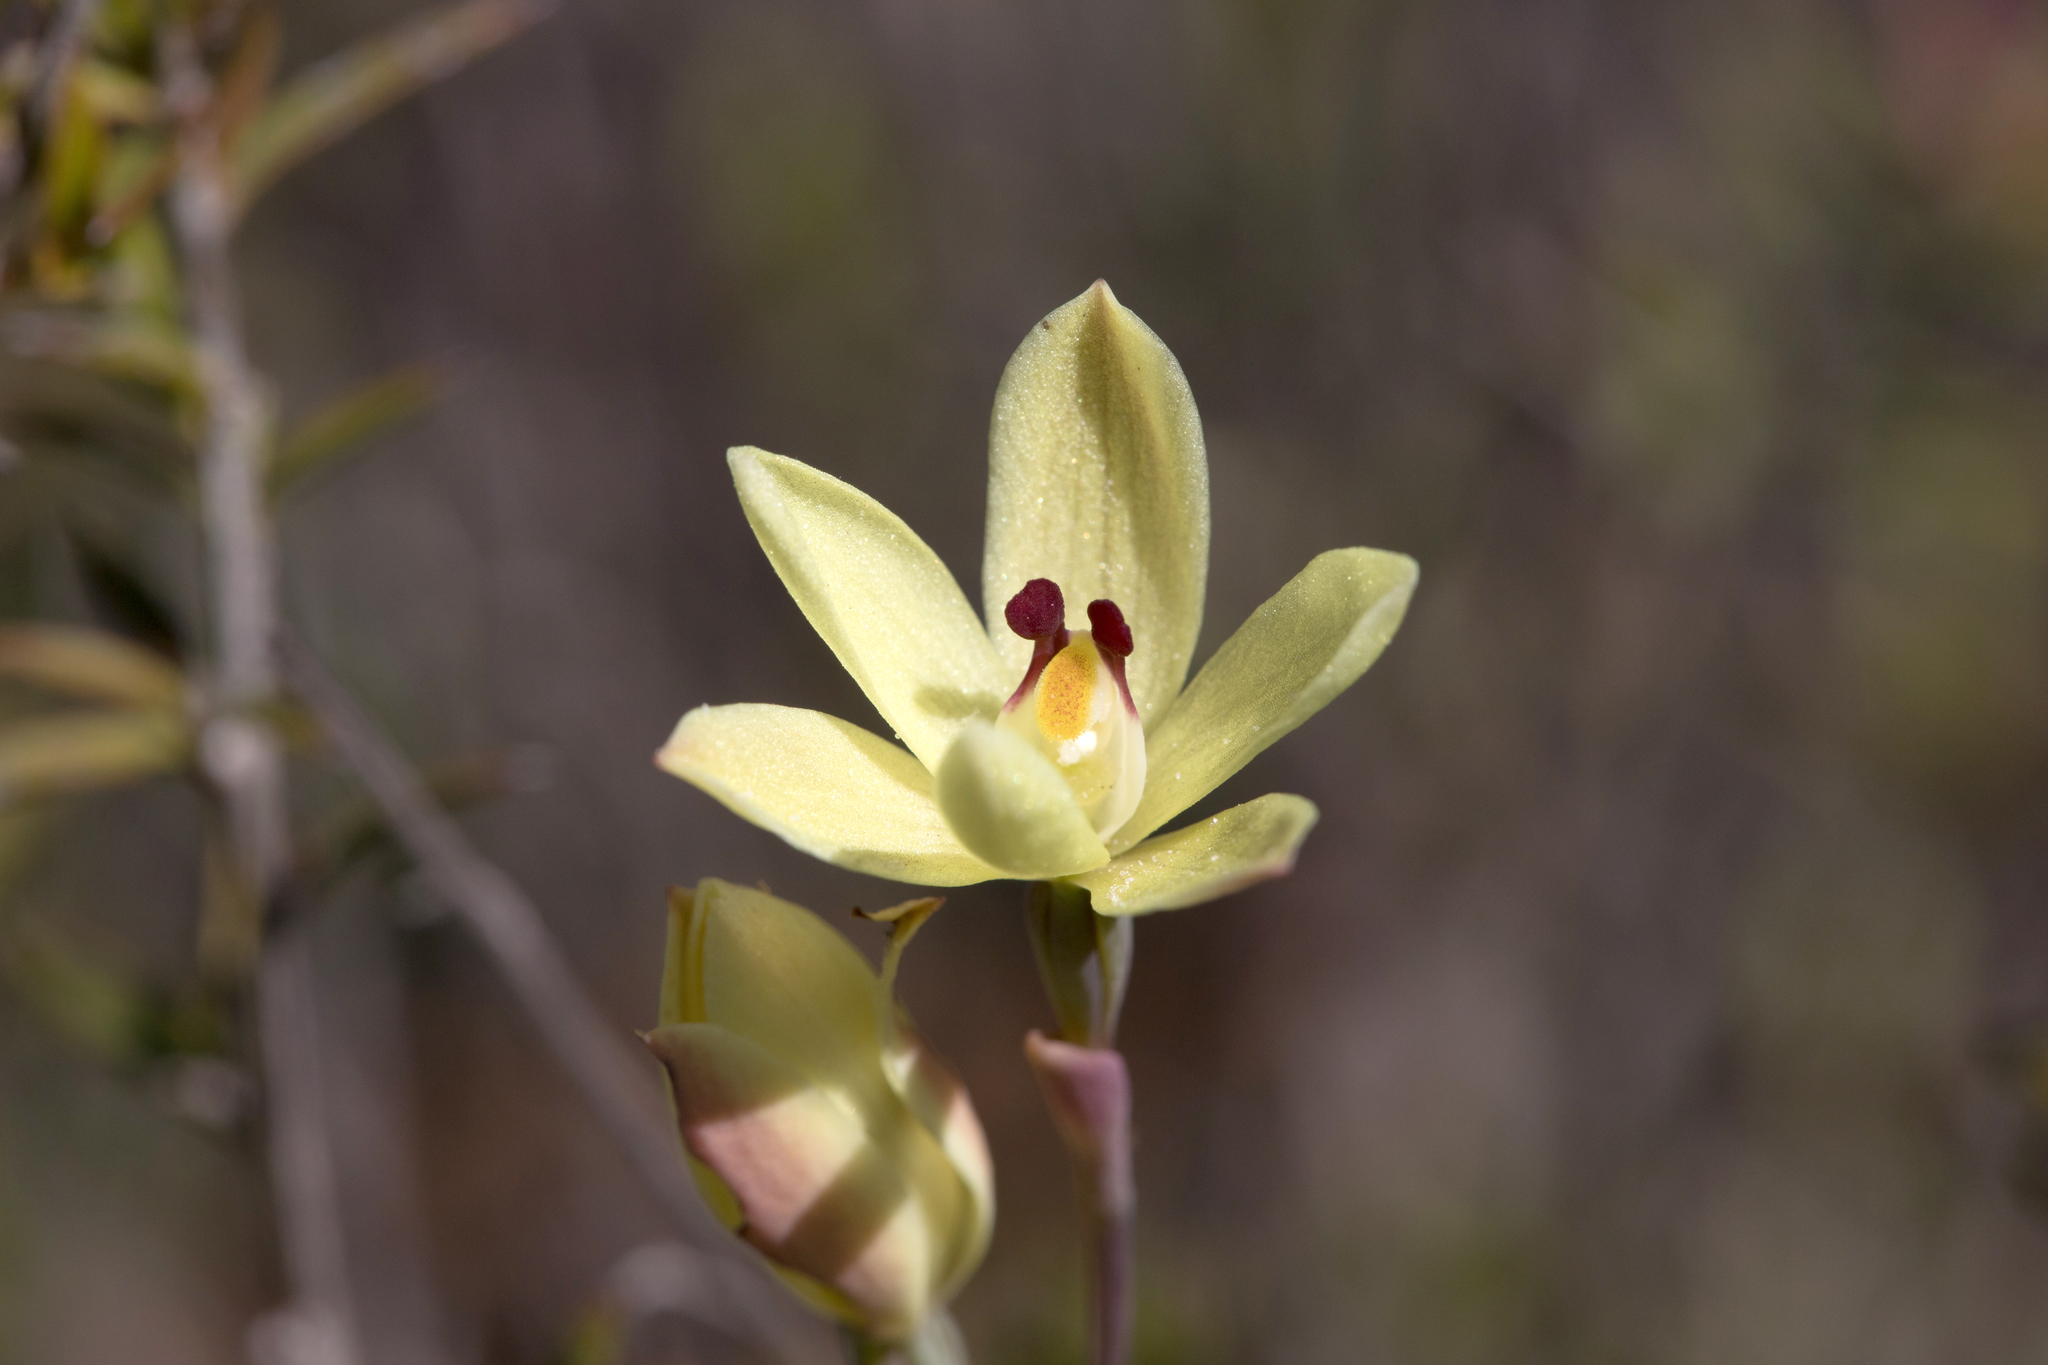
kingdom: Plantae
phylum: Tracheophyta
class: Liliopsida
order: Asparagales
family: Orchidaceae
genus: Thelymitra
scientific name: Thelymitra antennifera
